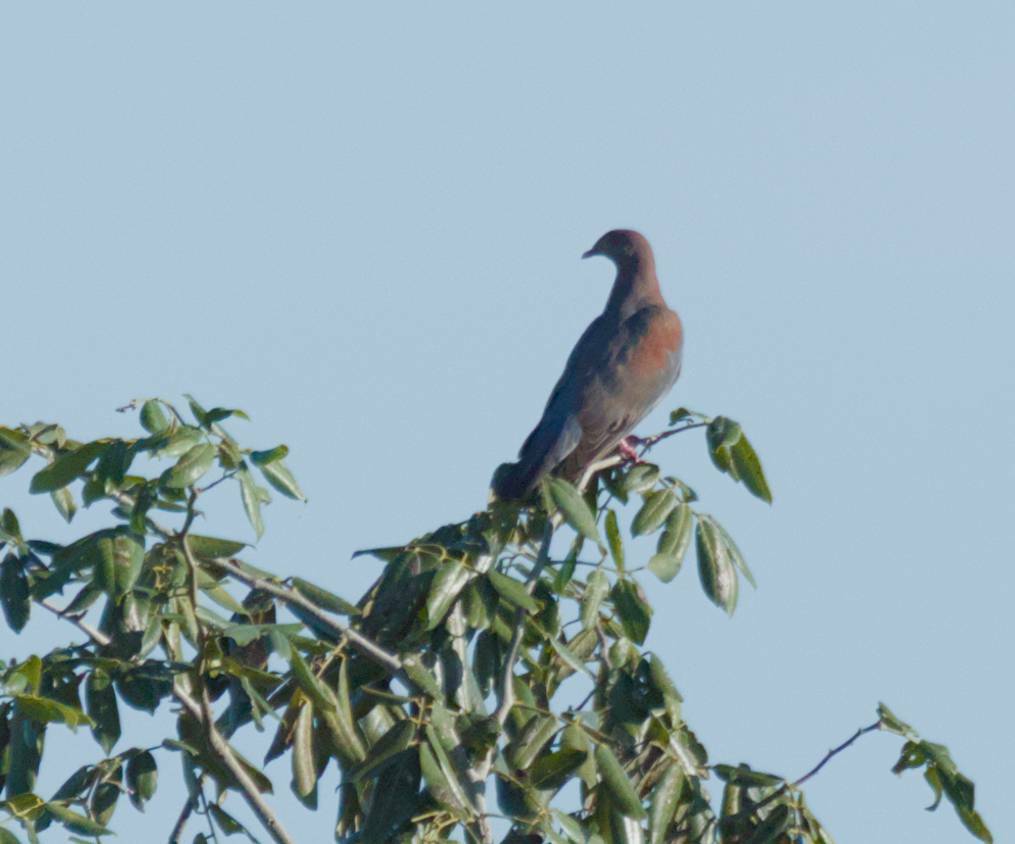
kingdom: Animalia
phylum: Chordata
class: Aves
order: Columbiformes
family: Columbidae
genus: Patagioenas
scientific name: Patagioenas flavirostris
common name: Red-billed pigeon
